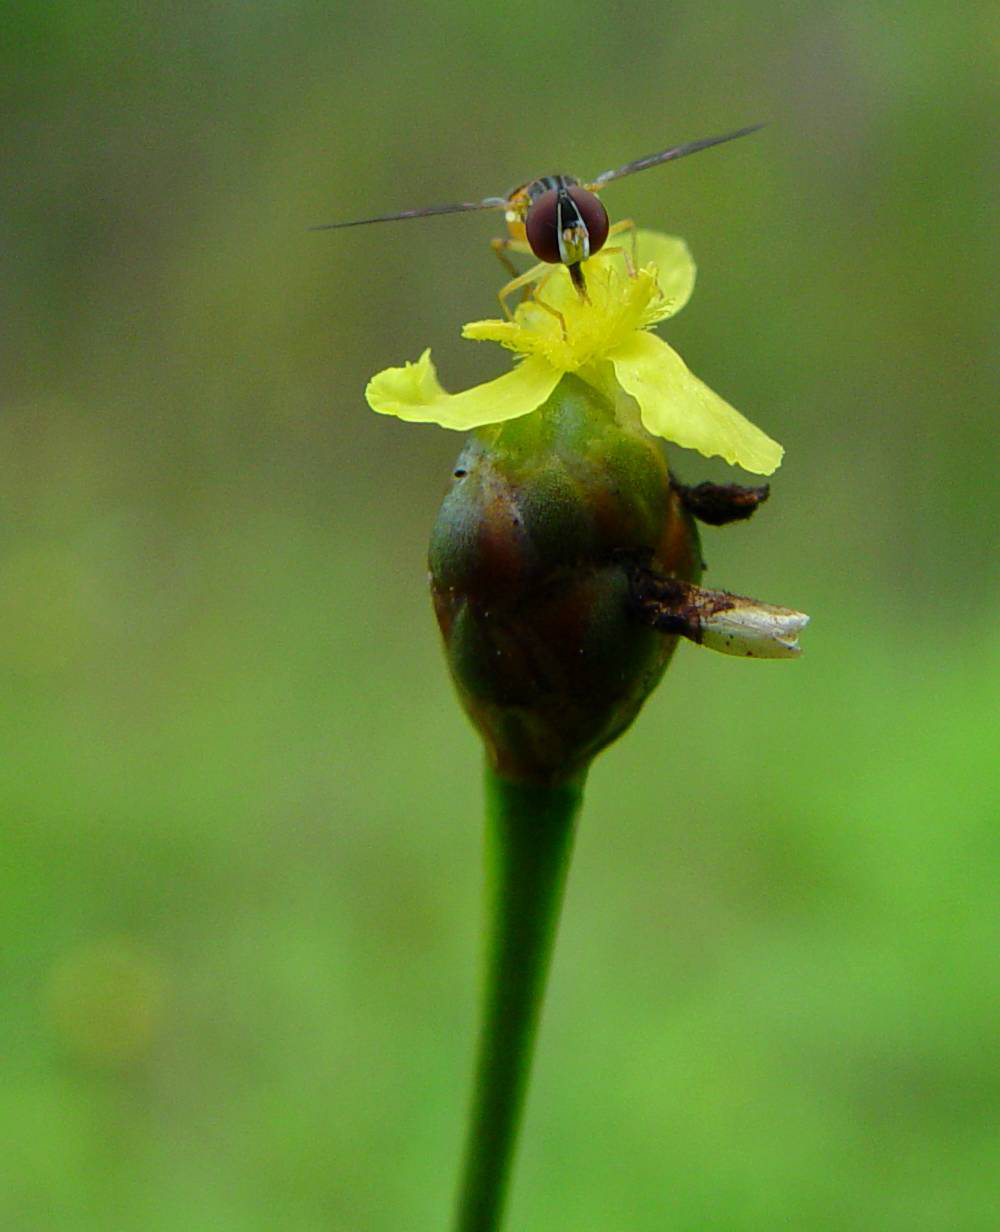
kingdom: Animalia
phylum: Arthropoda
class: Insecta
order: Diptera
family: Syrphidae
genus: Toxomerus
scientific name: Toxomerus boscii
